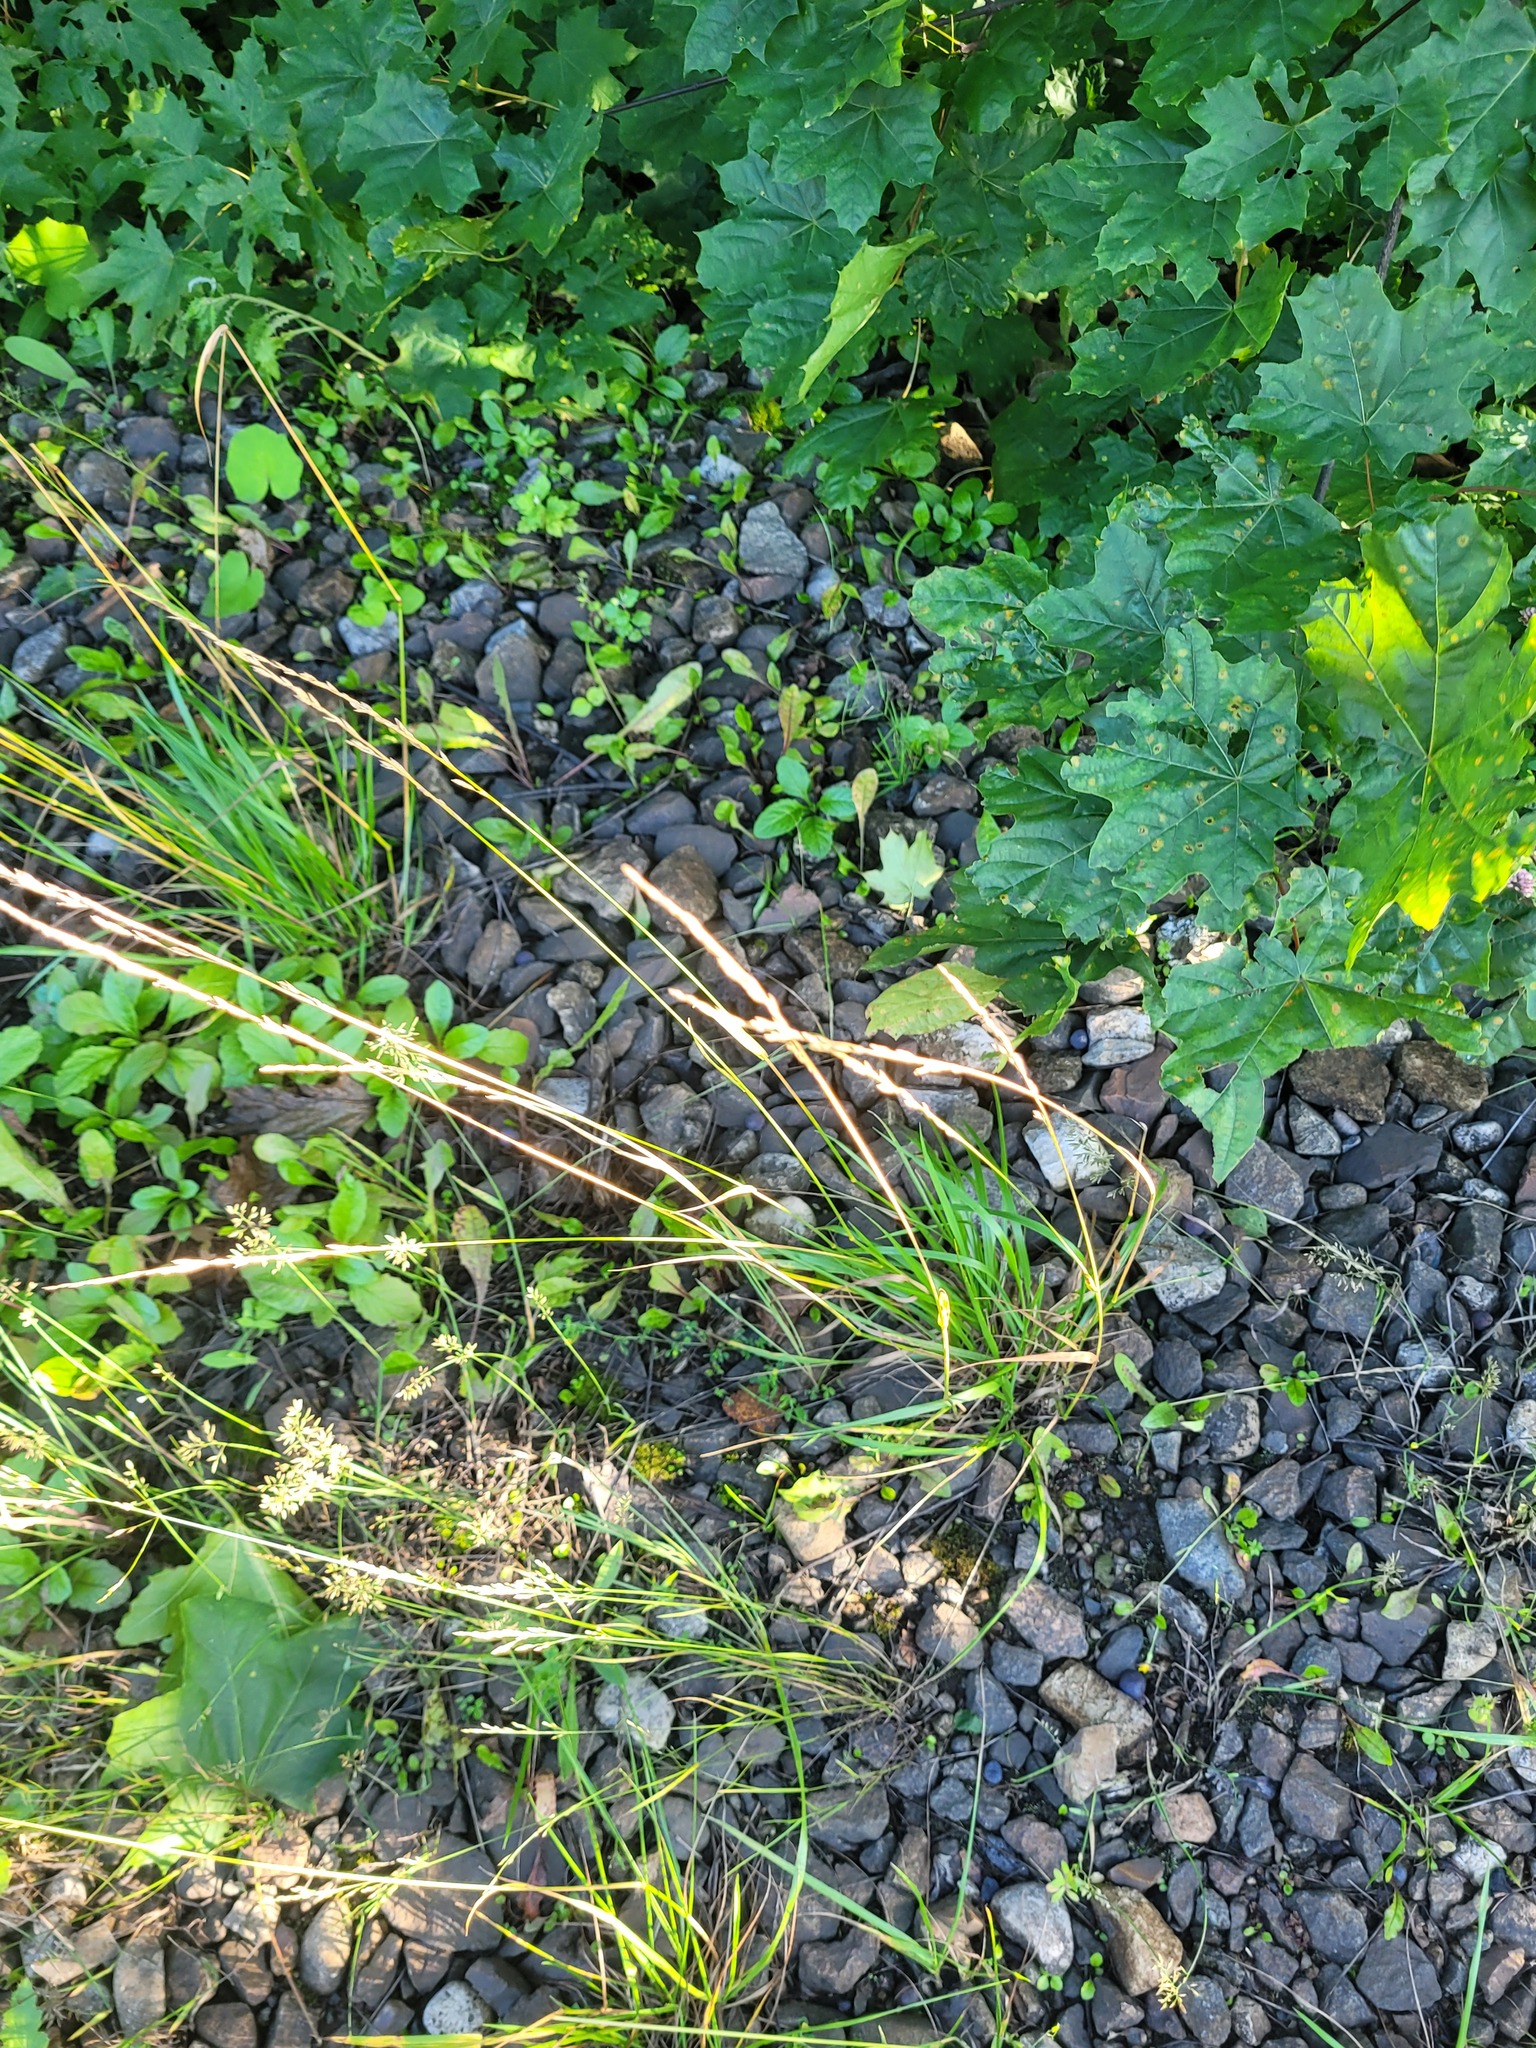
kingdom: Plantae
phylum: Tracheophyta
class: Liliopsida
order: Poales
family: Poaceae
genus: Lolium
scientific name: Lolium pratense
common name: Dover grass
